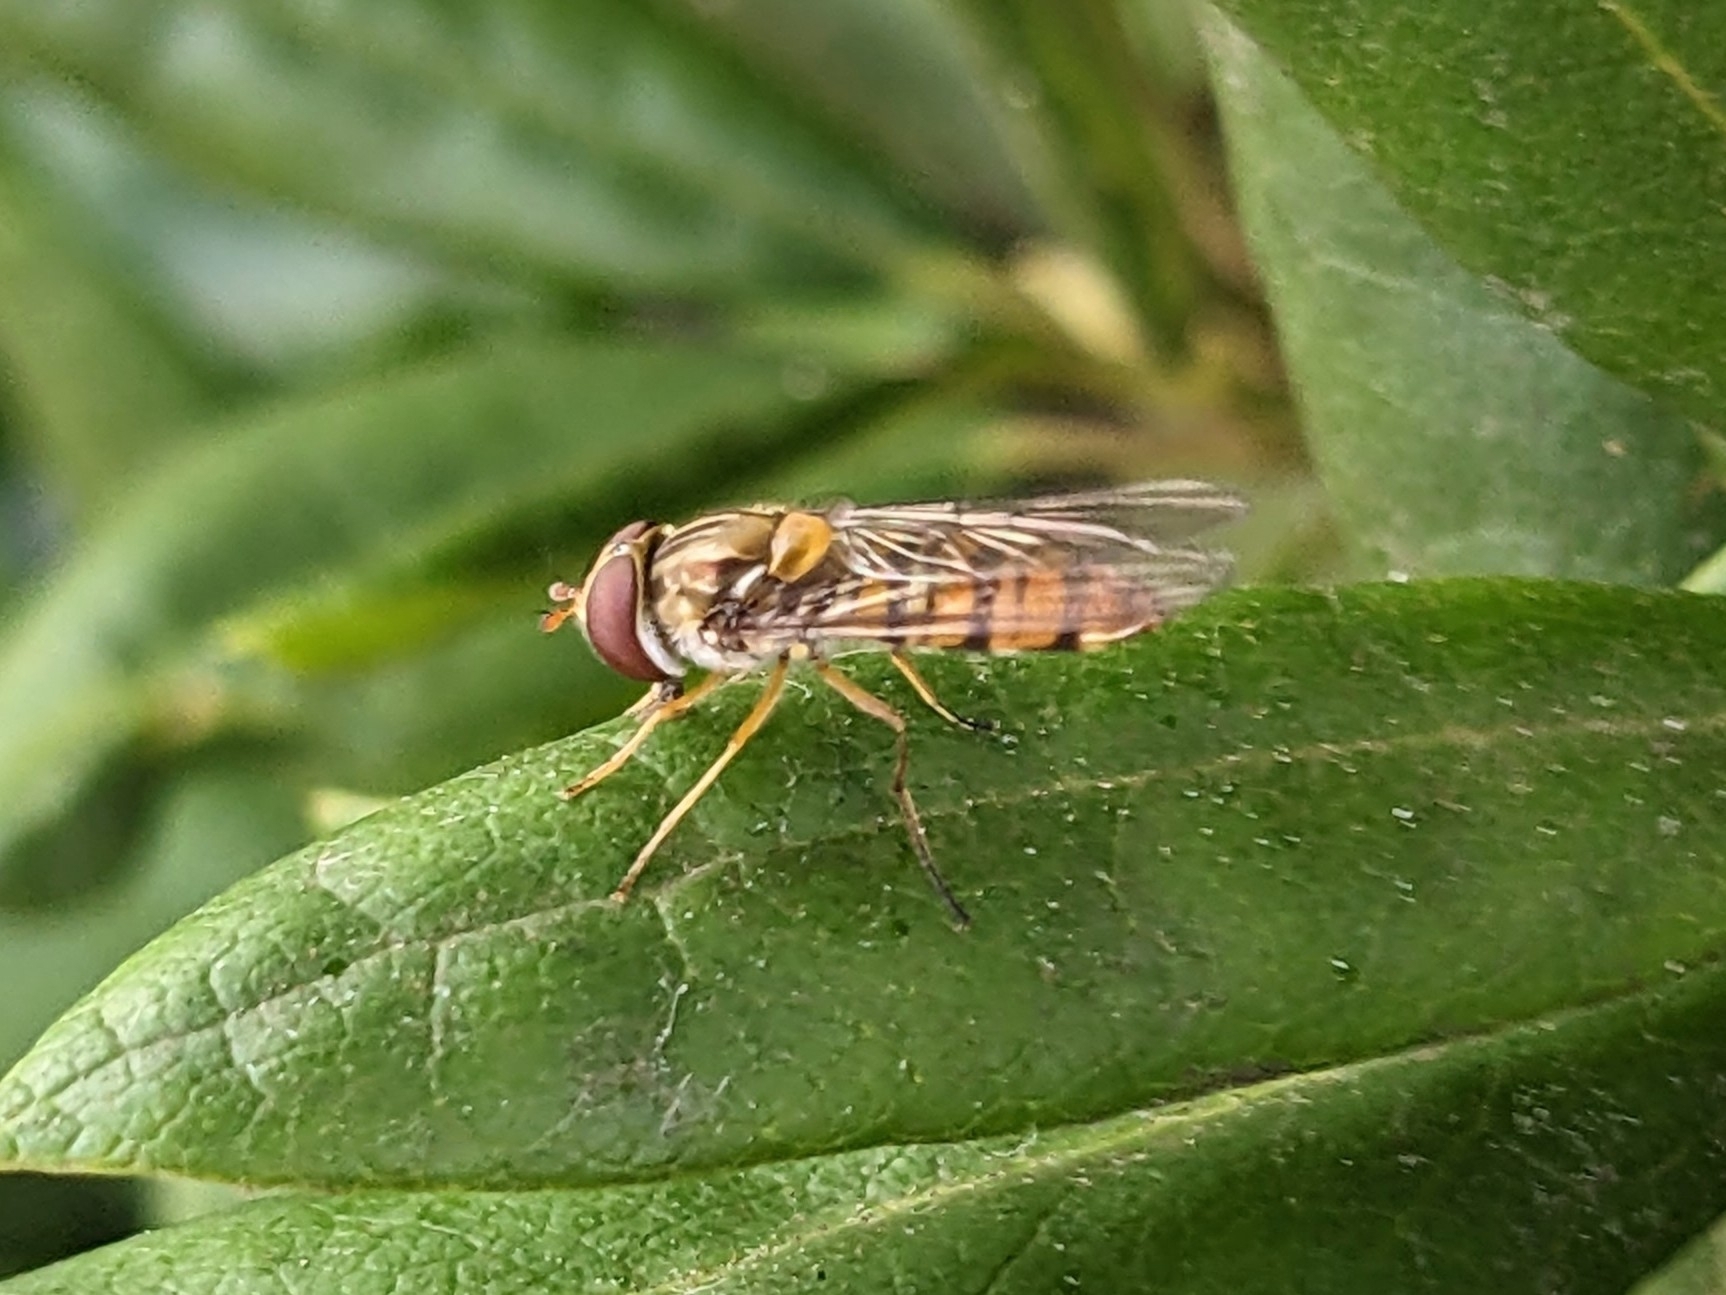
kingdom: Animalia
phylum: Arthropoda
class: Insecta
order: Diptera
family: Syrphidae
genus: Episyrphus
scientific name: Episyrphus balteatus
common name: Marmalade hoverfly
